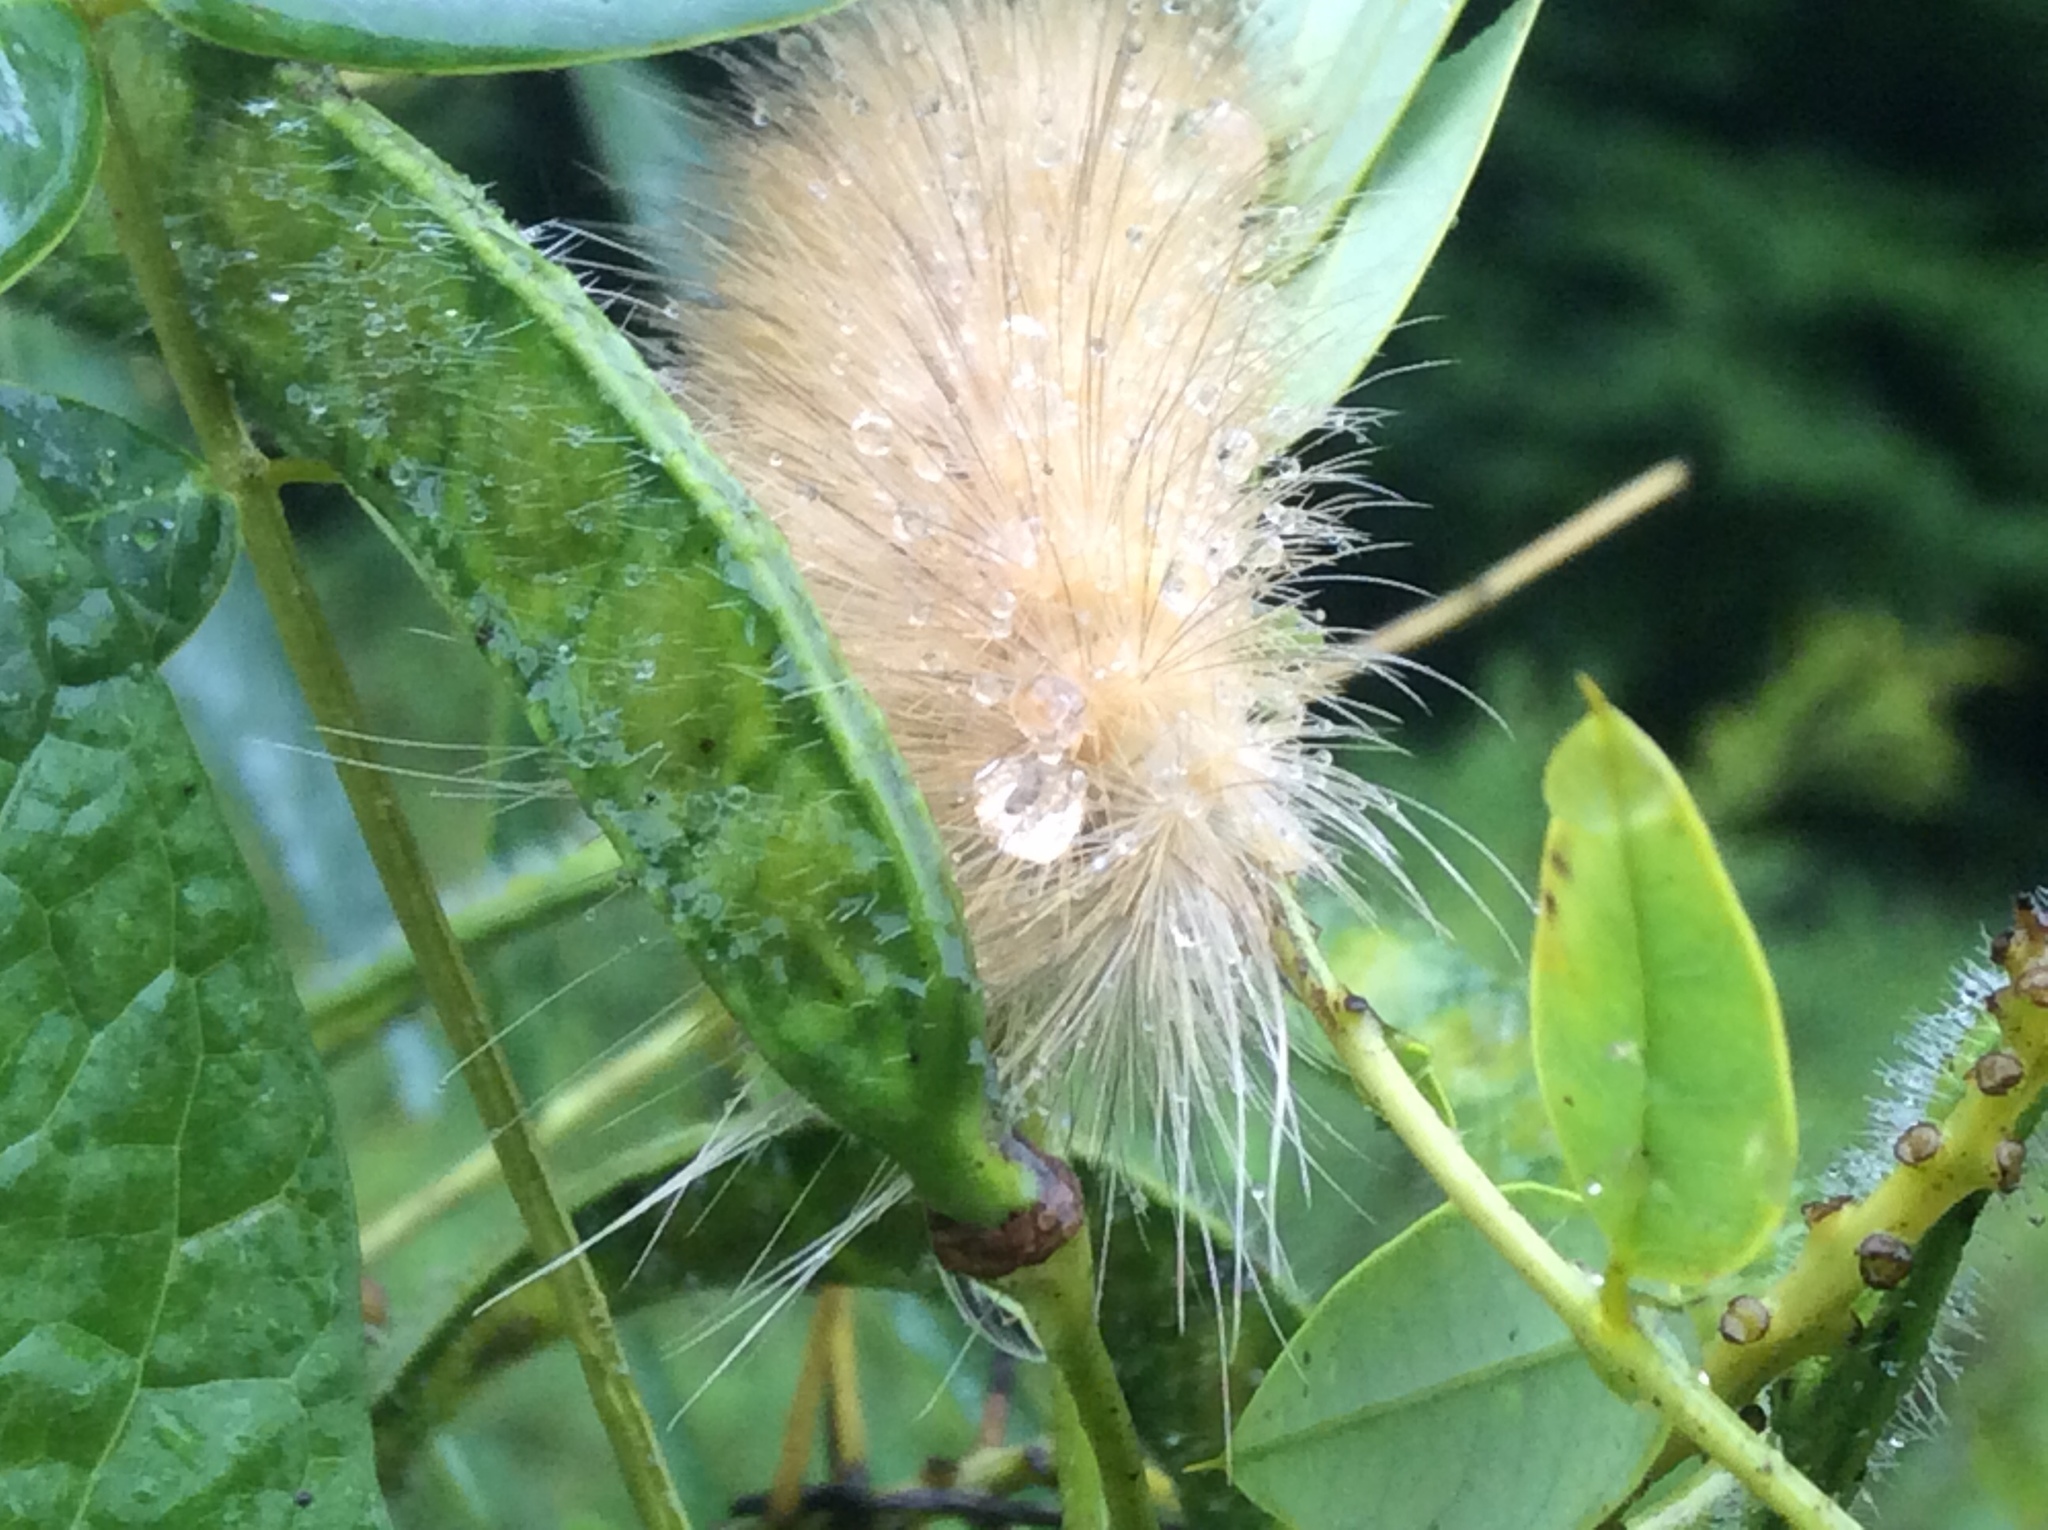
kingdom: Animalia
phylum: Arthropoda
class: Insecta
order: Lepidoptera
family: Erebidae
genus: Spilosoma
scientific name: Spilosoma virginica
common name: Virginia tiger moth
